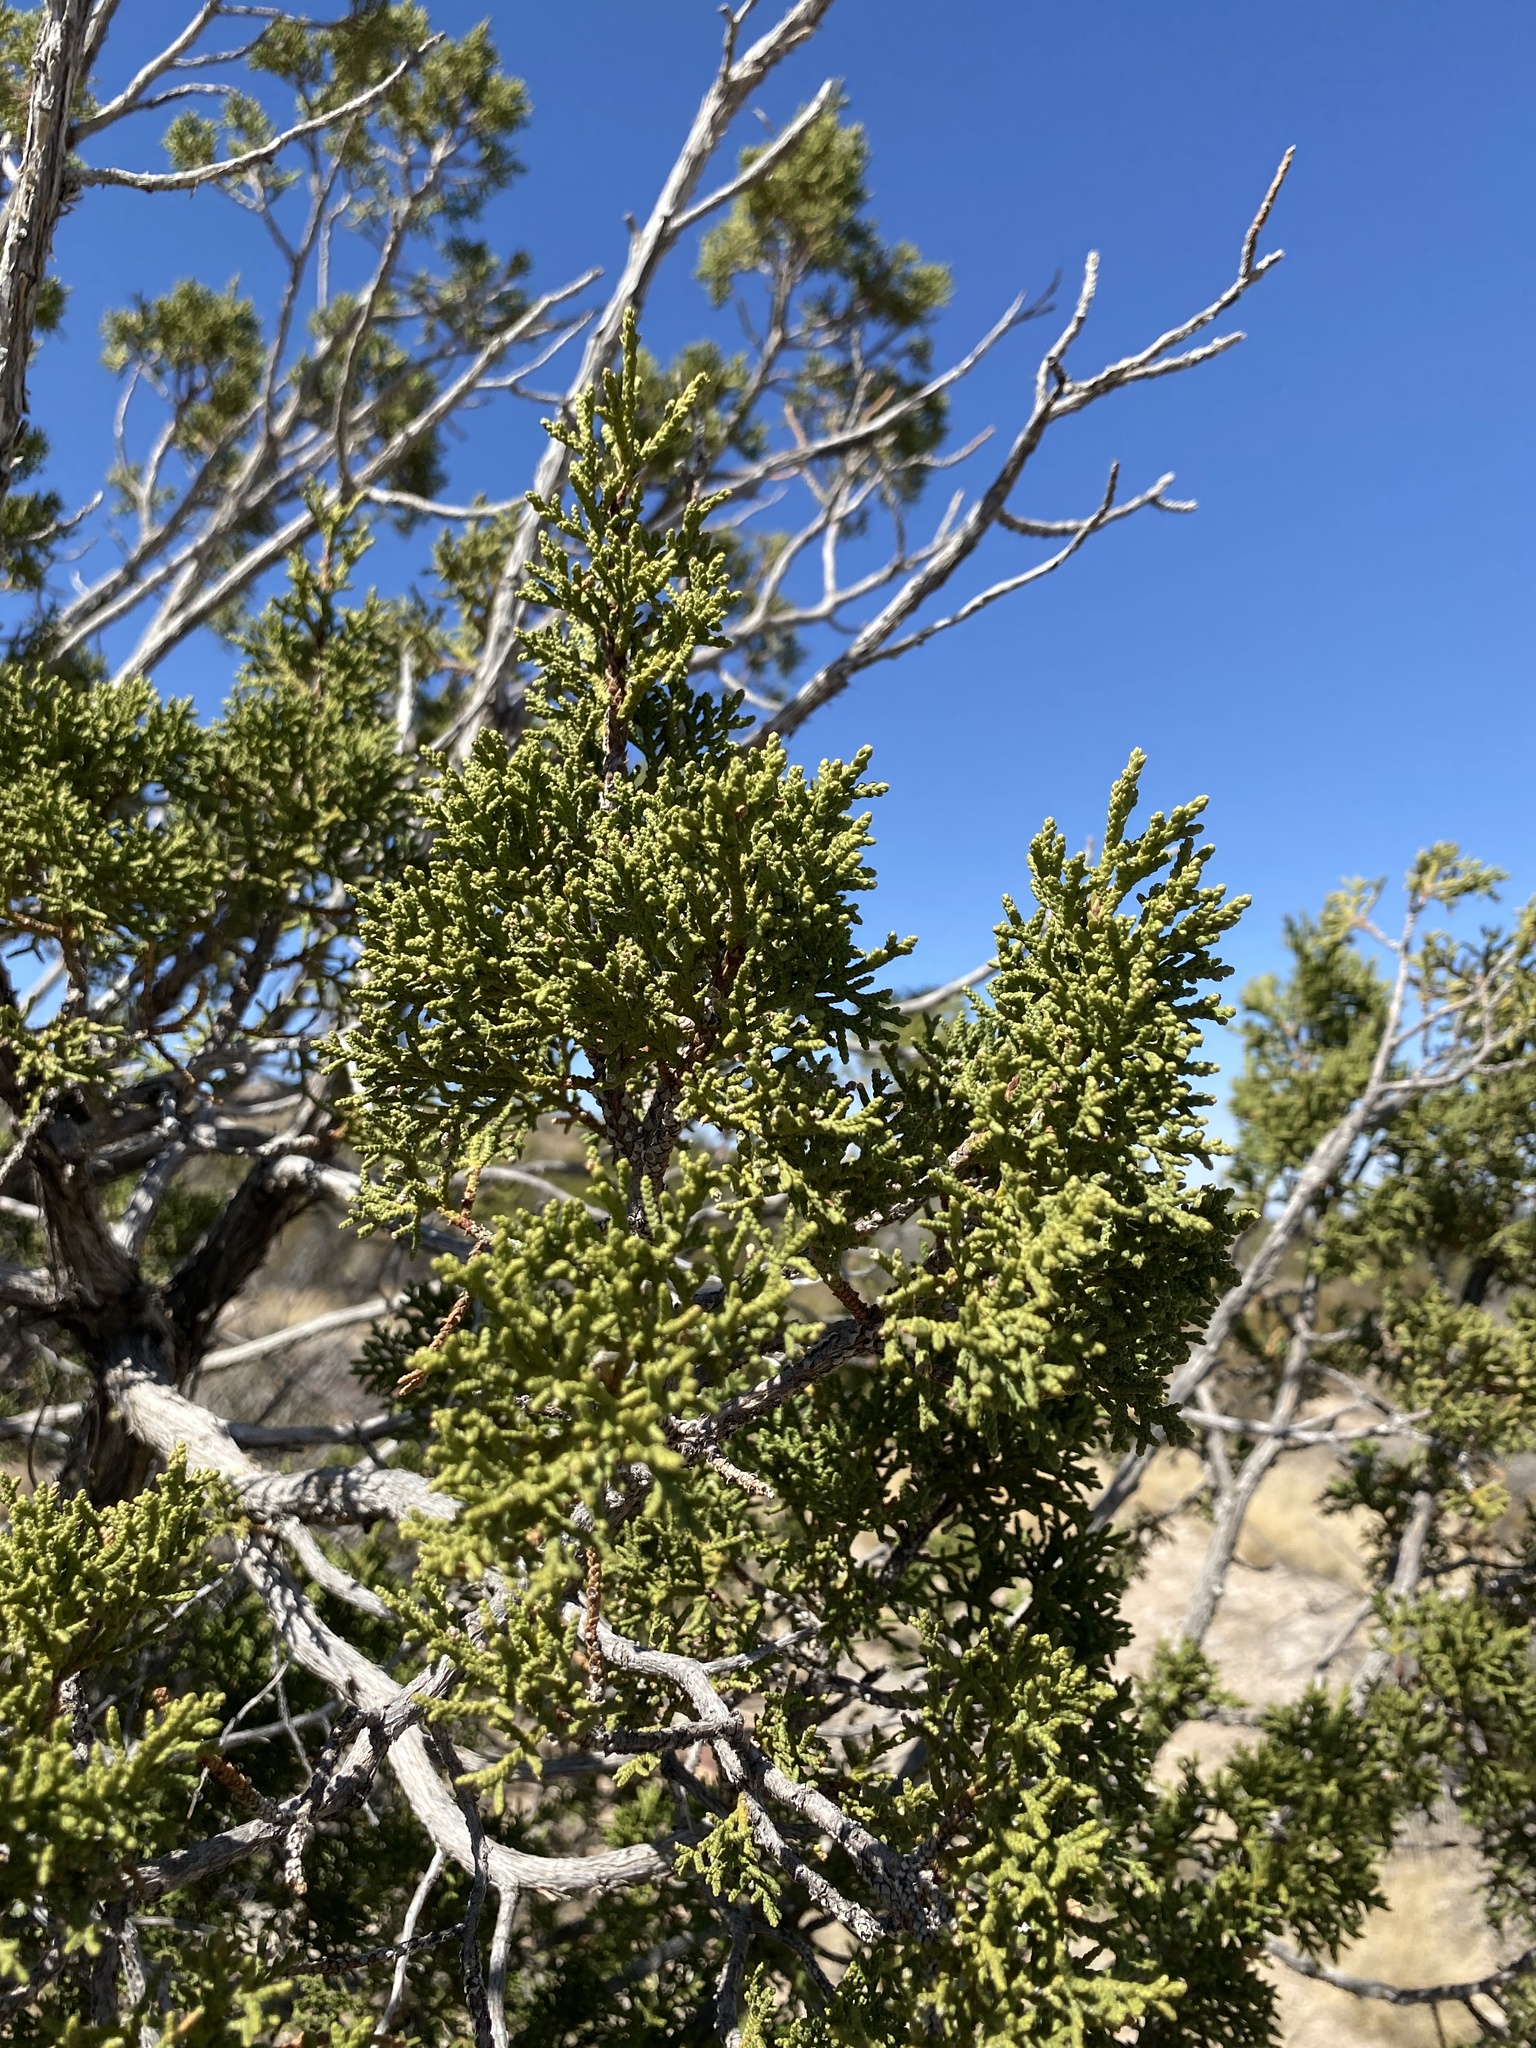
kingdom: Plantae
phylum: Tracheophyta
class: Pinopsida
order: Pinales
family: Cupressaceae
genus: Juniperus
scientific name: Juniperus monosperma
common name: One-seed juniper
